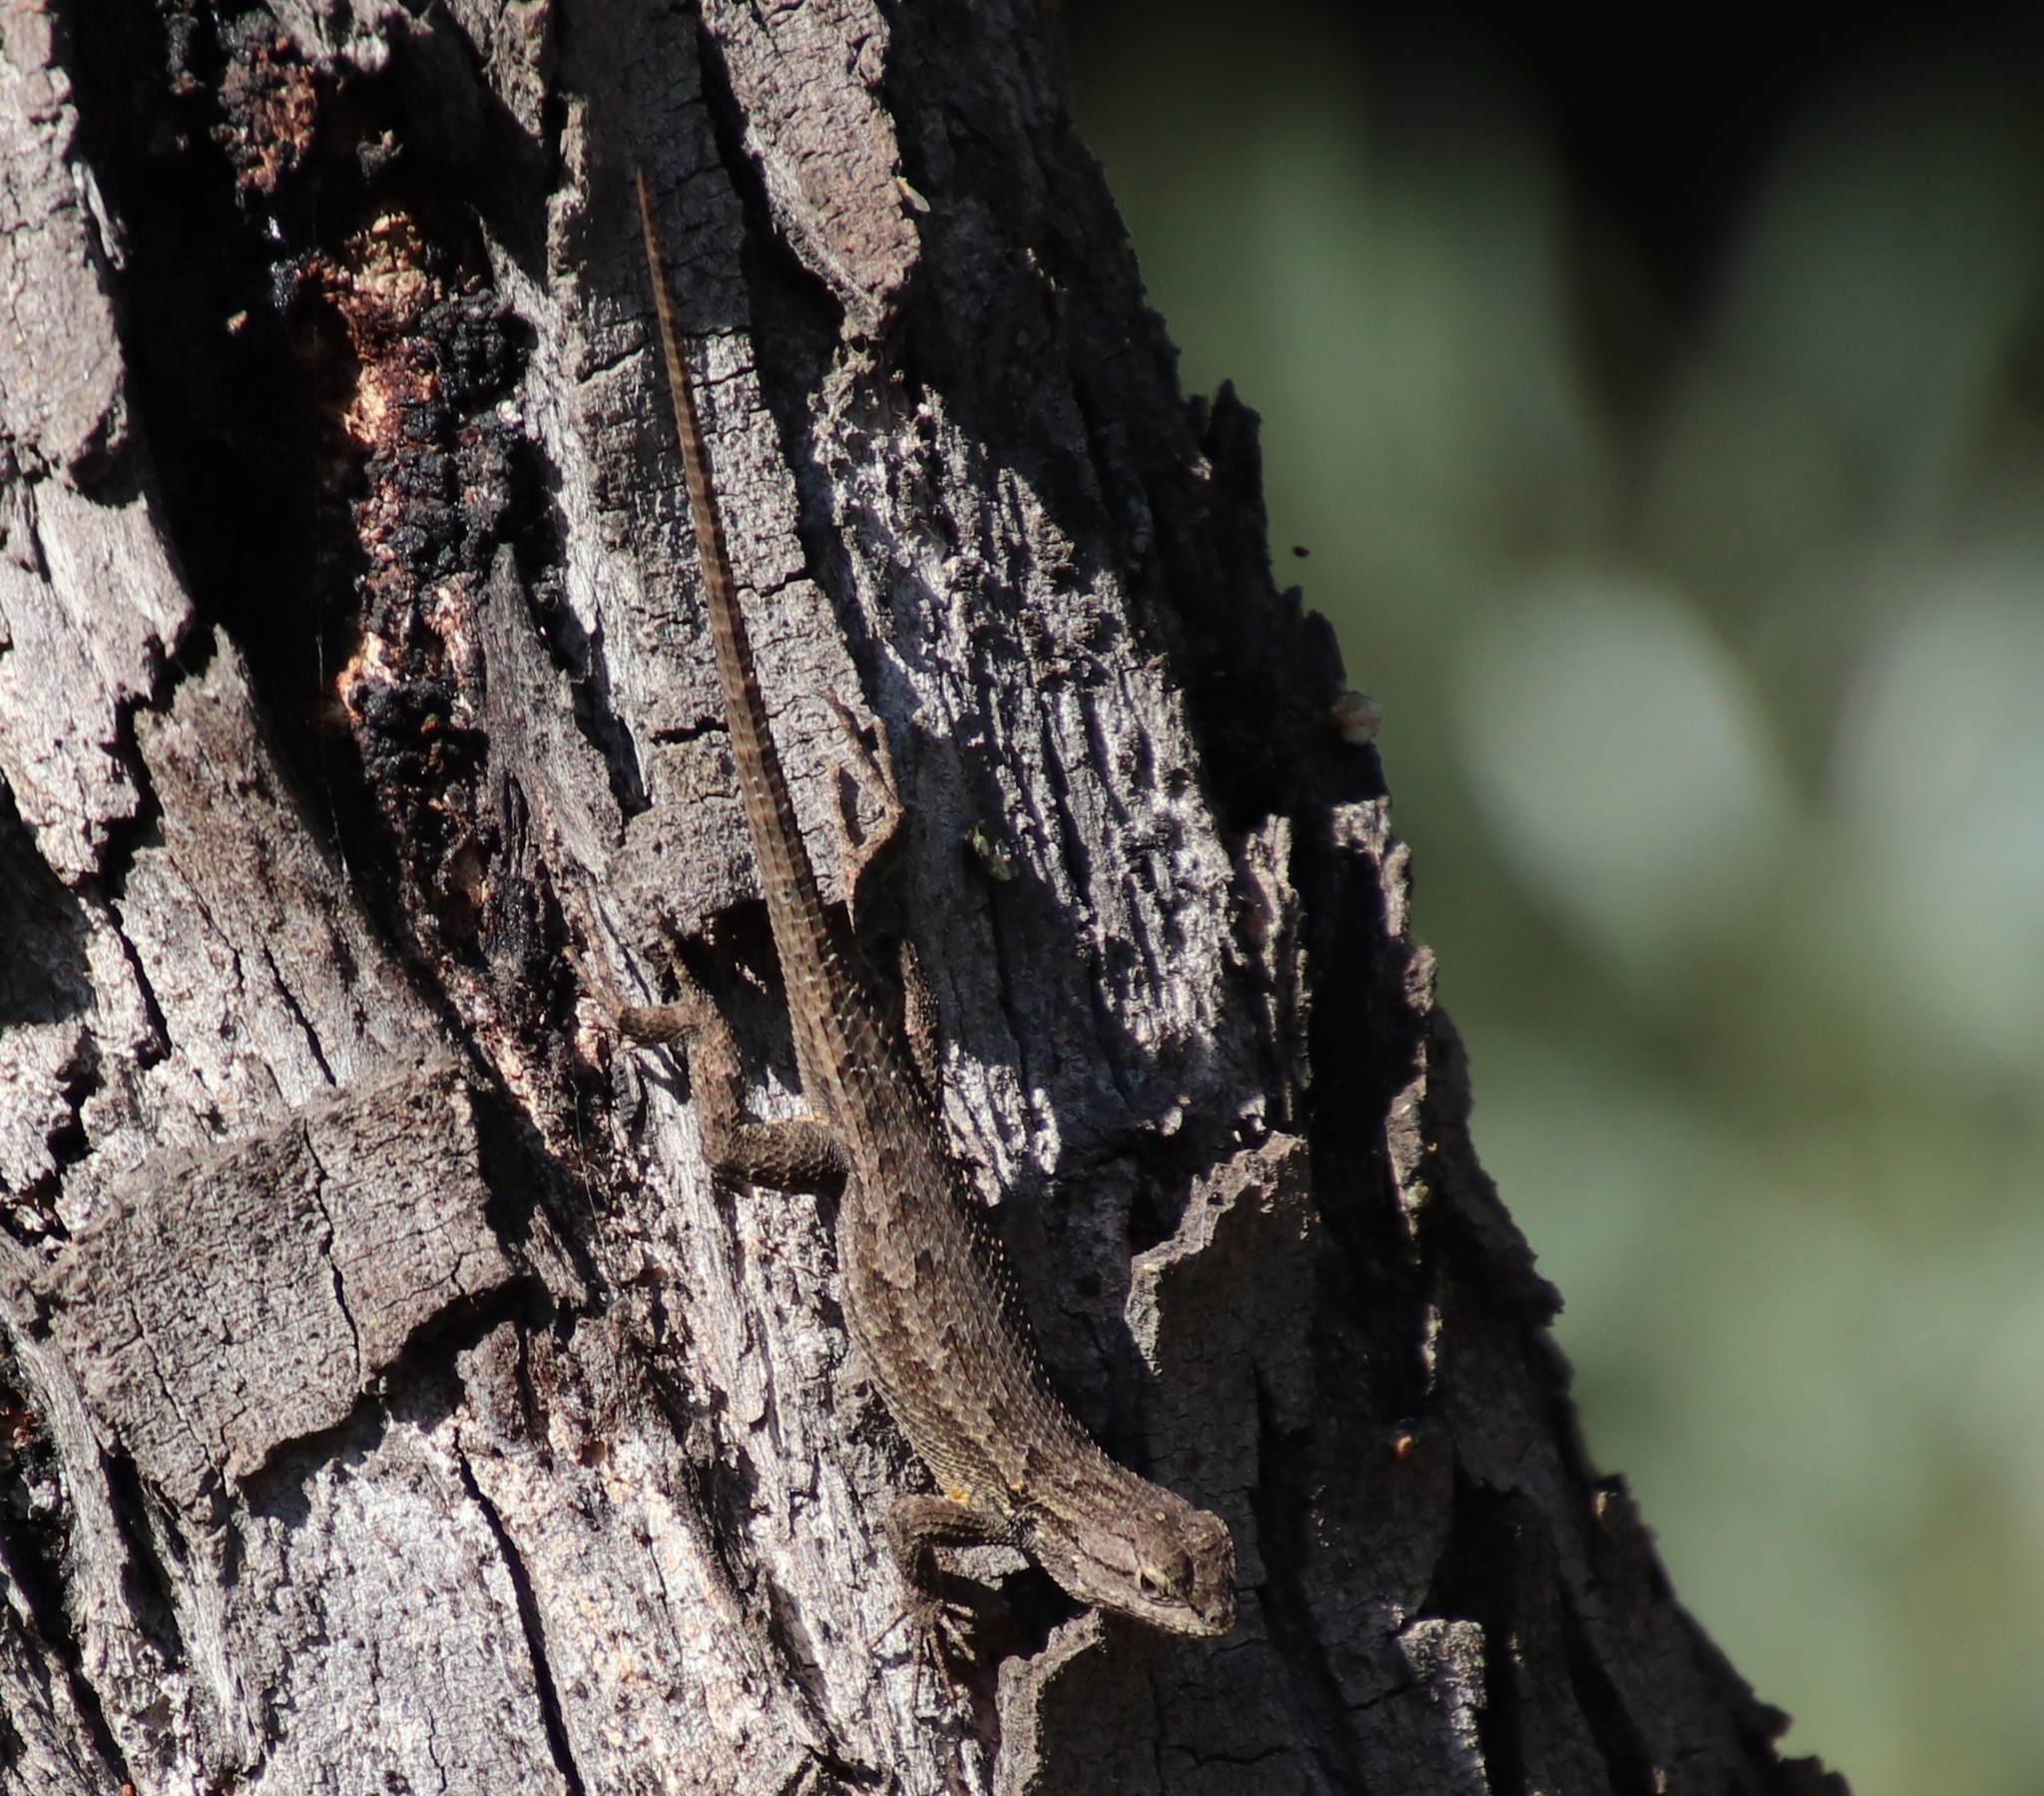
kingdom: Animalia
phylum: Chordata
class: Squamata
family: Phrynosomatidae
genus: Sceloporus
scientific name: Sceloporus occidentalis
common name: Western fence lizard
